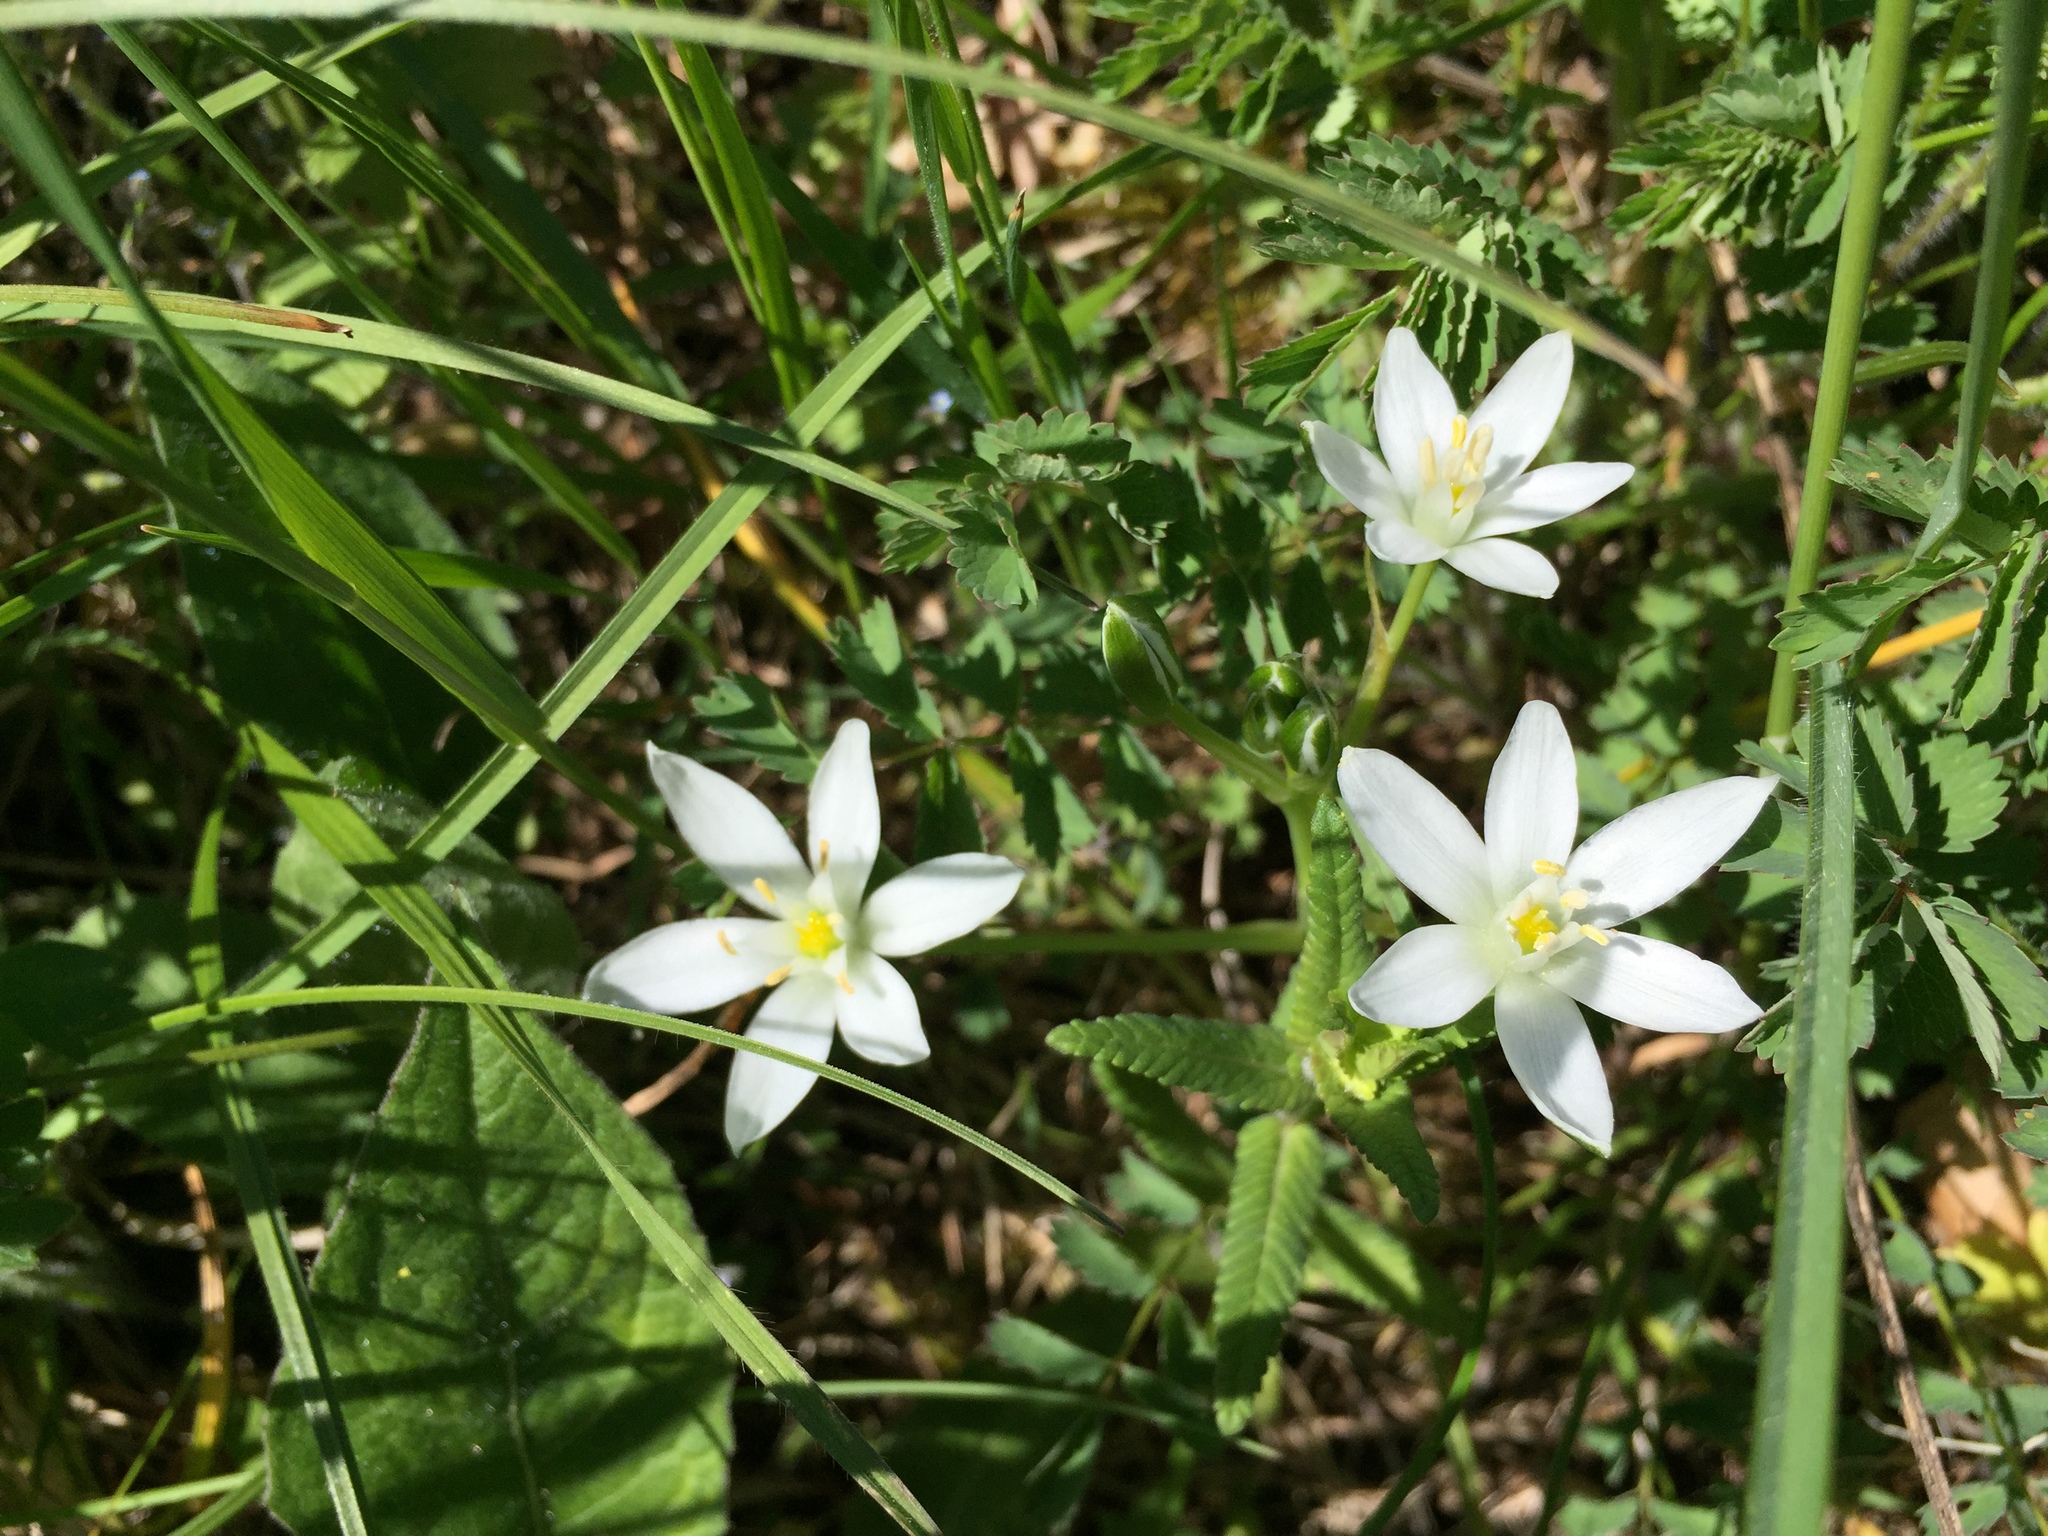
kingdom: Plantae
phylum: Tracheophyta
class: Liliopsida
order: Asparagales
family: Asparagaceae
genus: Ornithogalum
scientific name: Ornithogalum umbellatum
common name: Garden star-of-bethlehem
